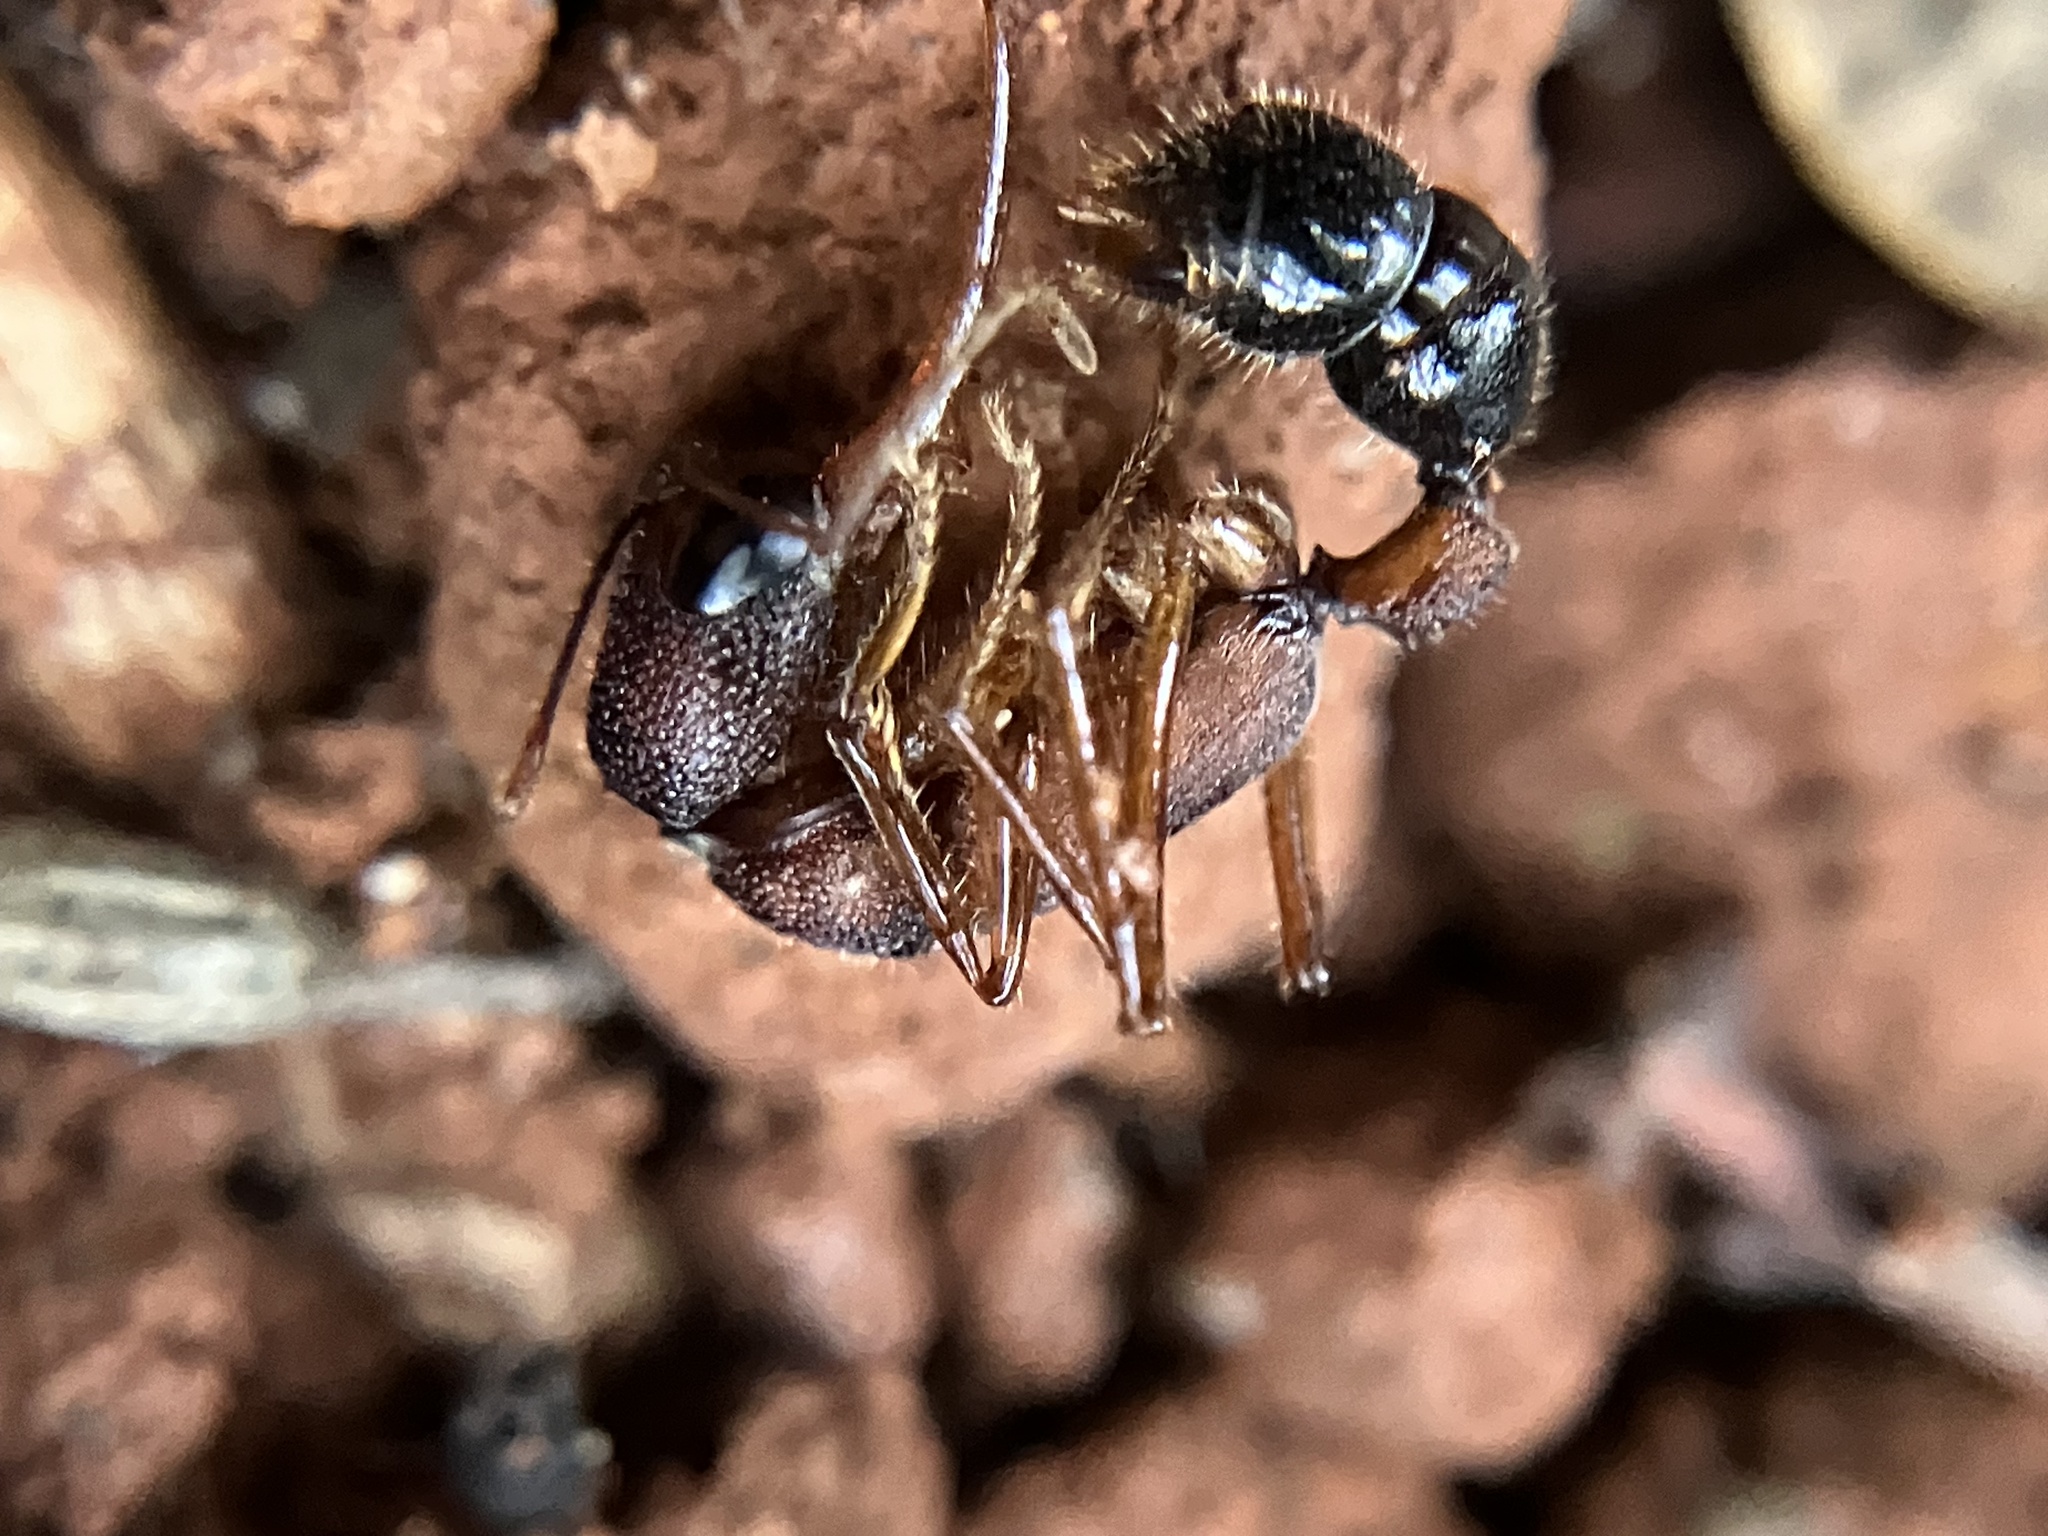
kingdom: Animalia
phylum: Arthropoda
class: Insecta
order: Hymenoptera
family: Formicidae
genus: Harpegnathos
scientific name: Harpegnathos saltator
